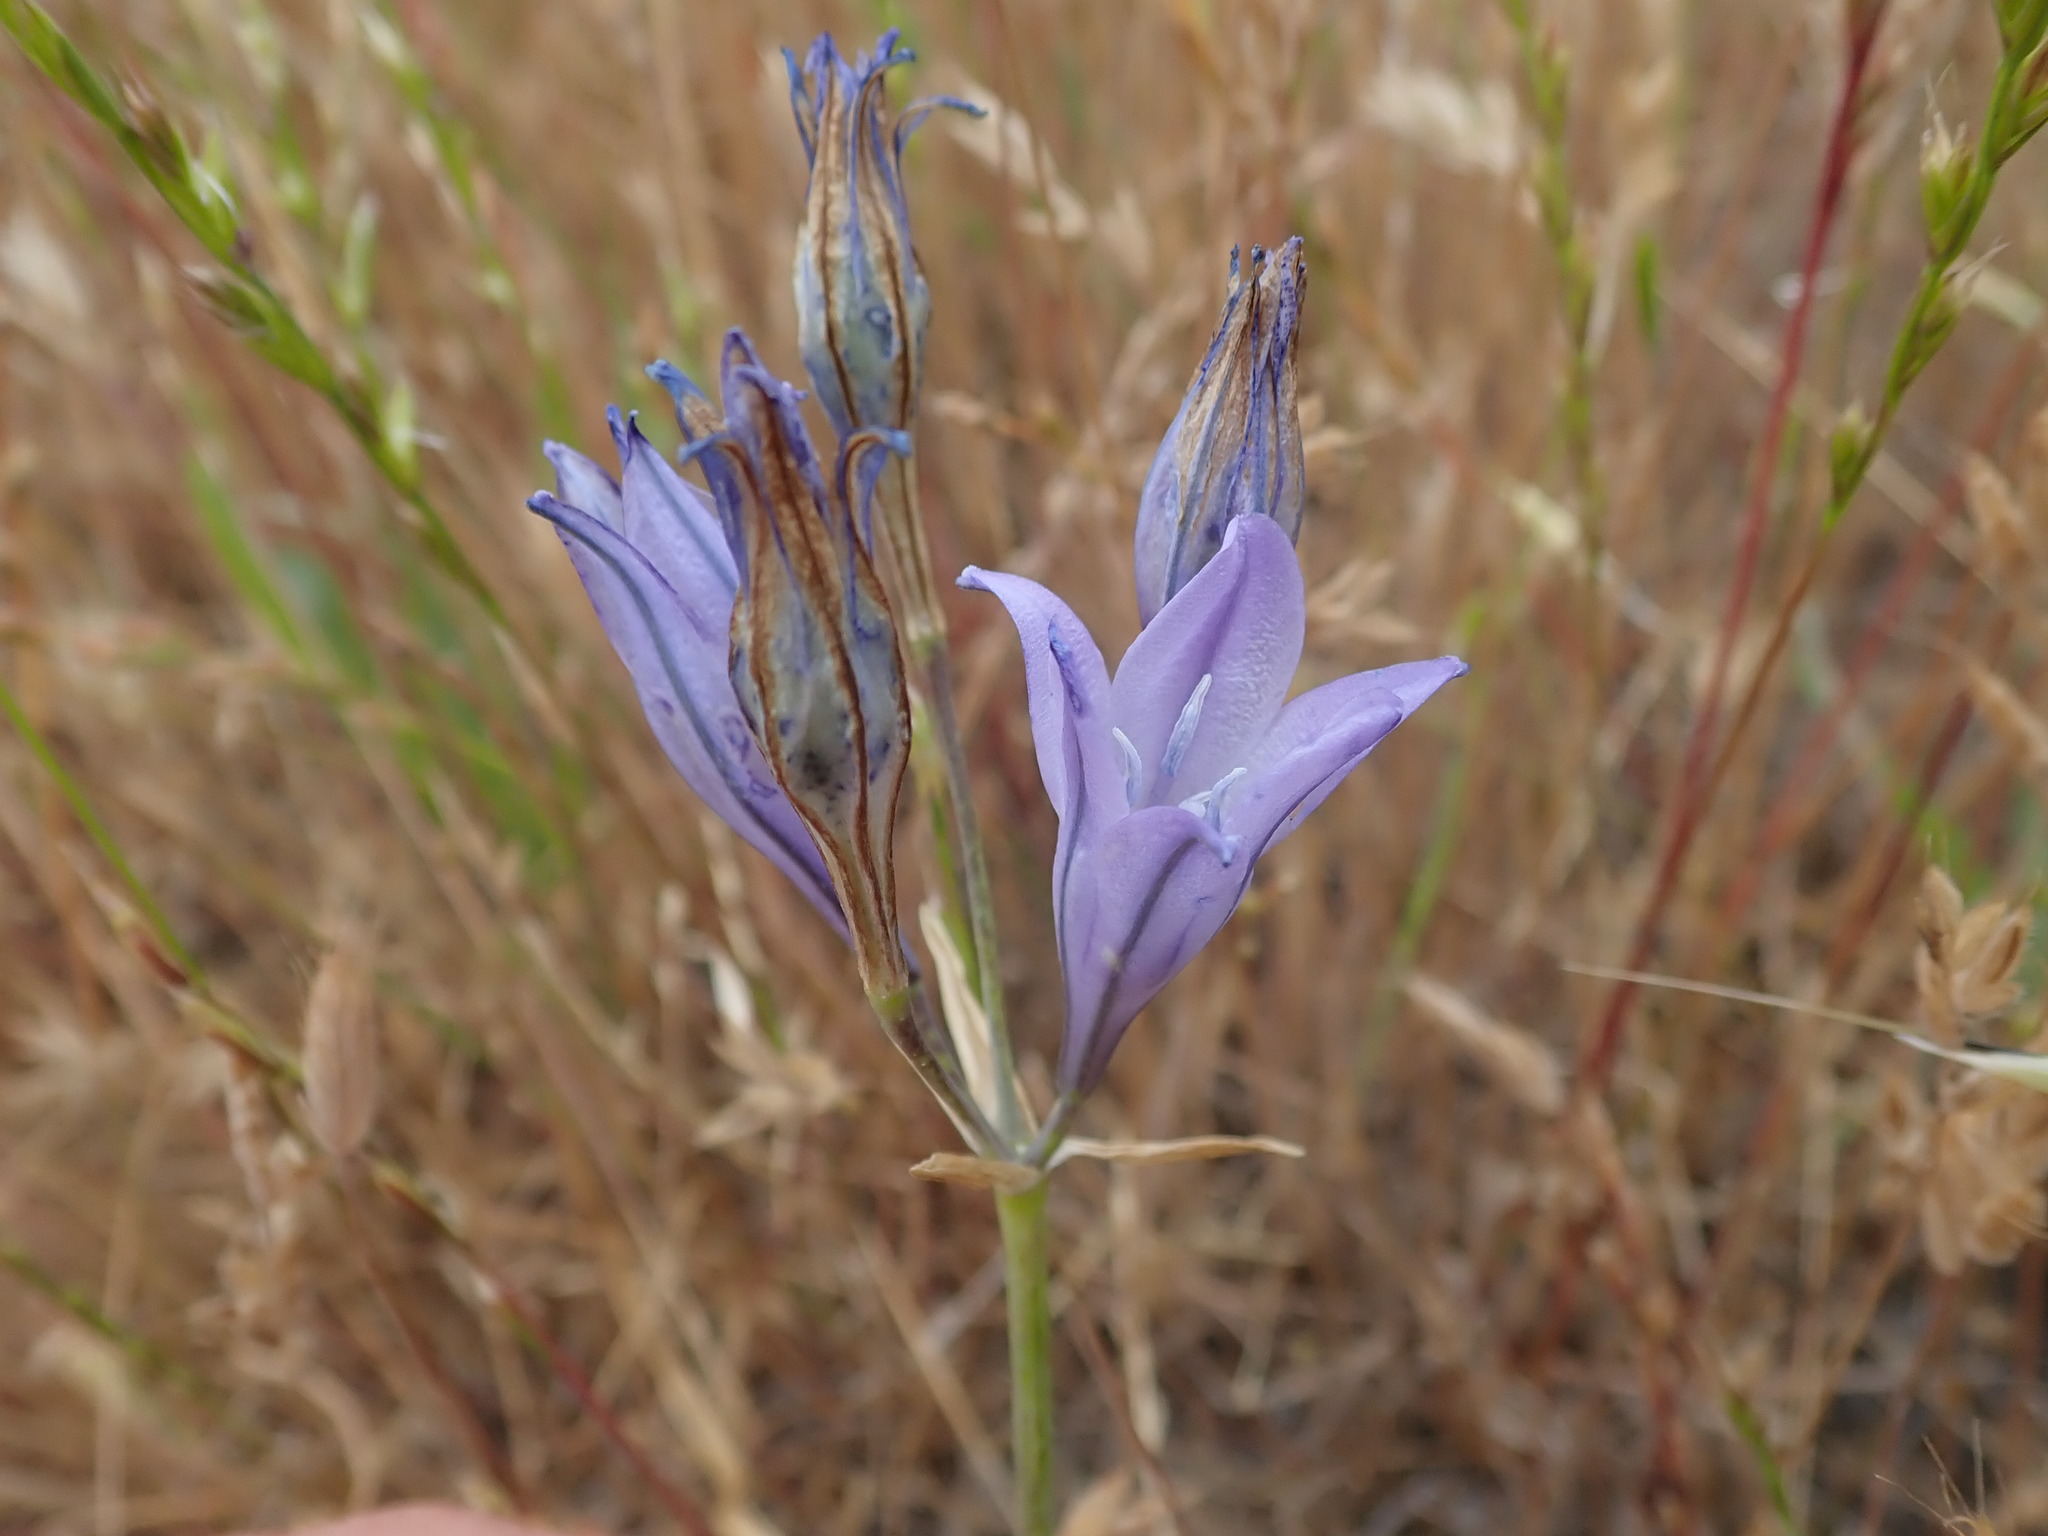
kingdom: Plantae
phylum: Tracheophyta
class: Liliopsida
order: Asparagales
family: Asparagaceae
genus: Triteleia
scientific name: Triteleia laxa
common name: Triplet-lily
